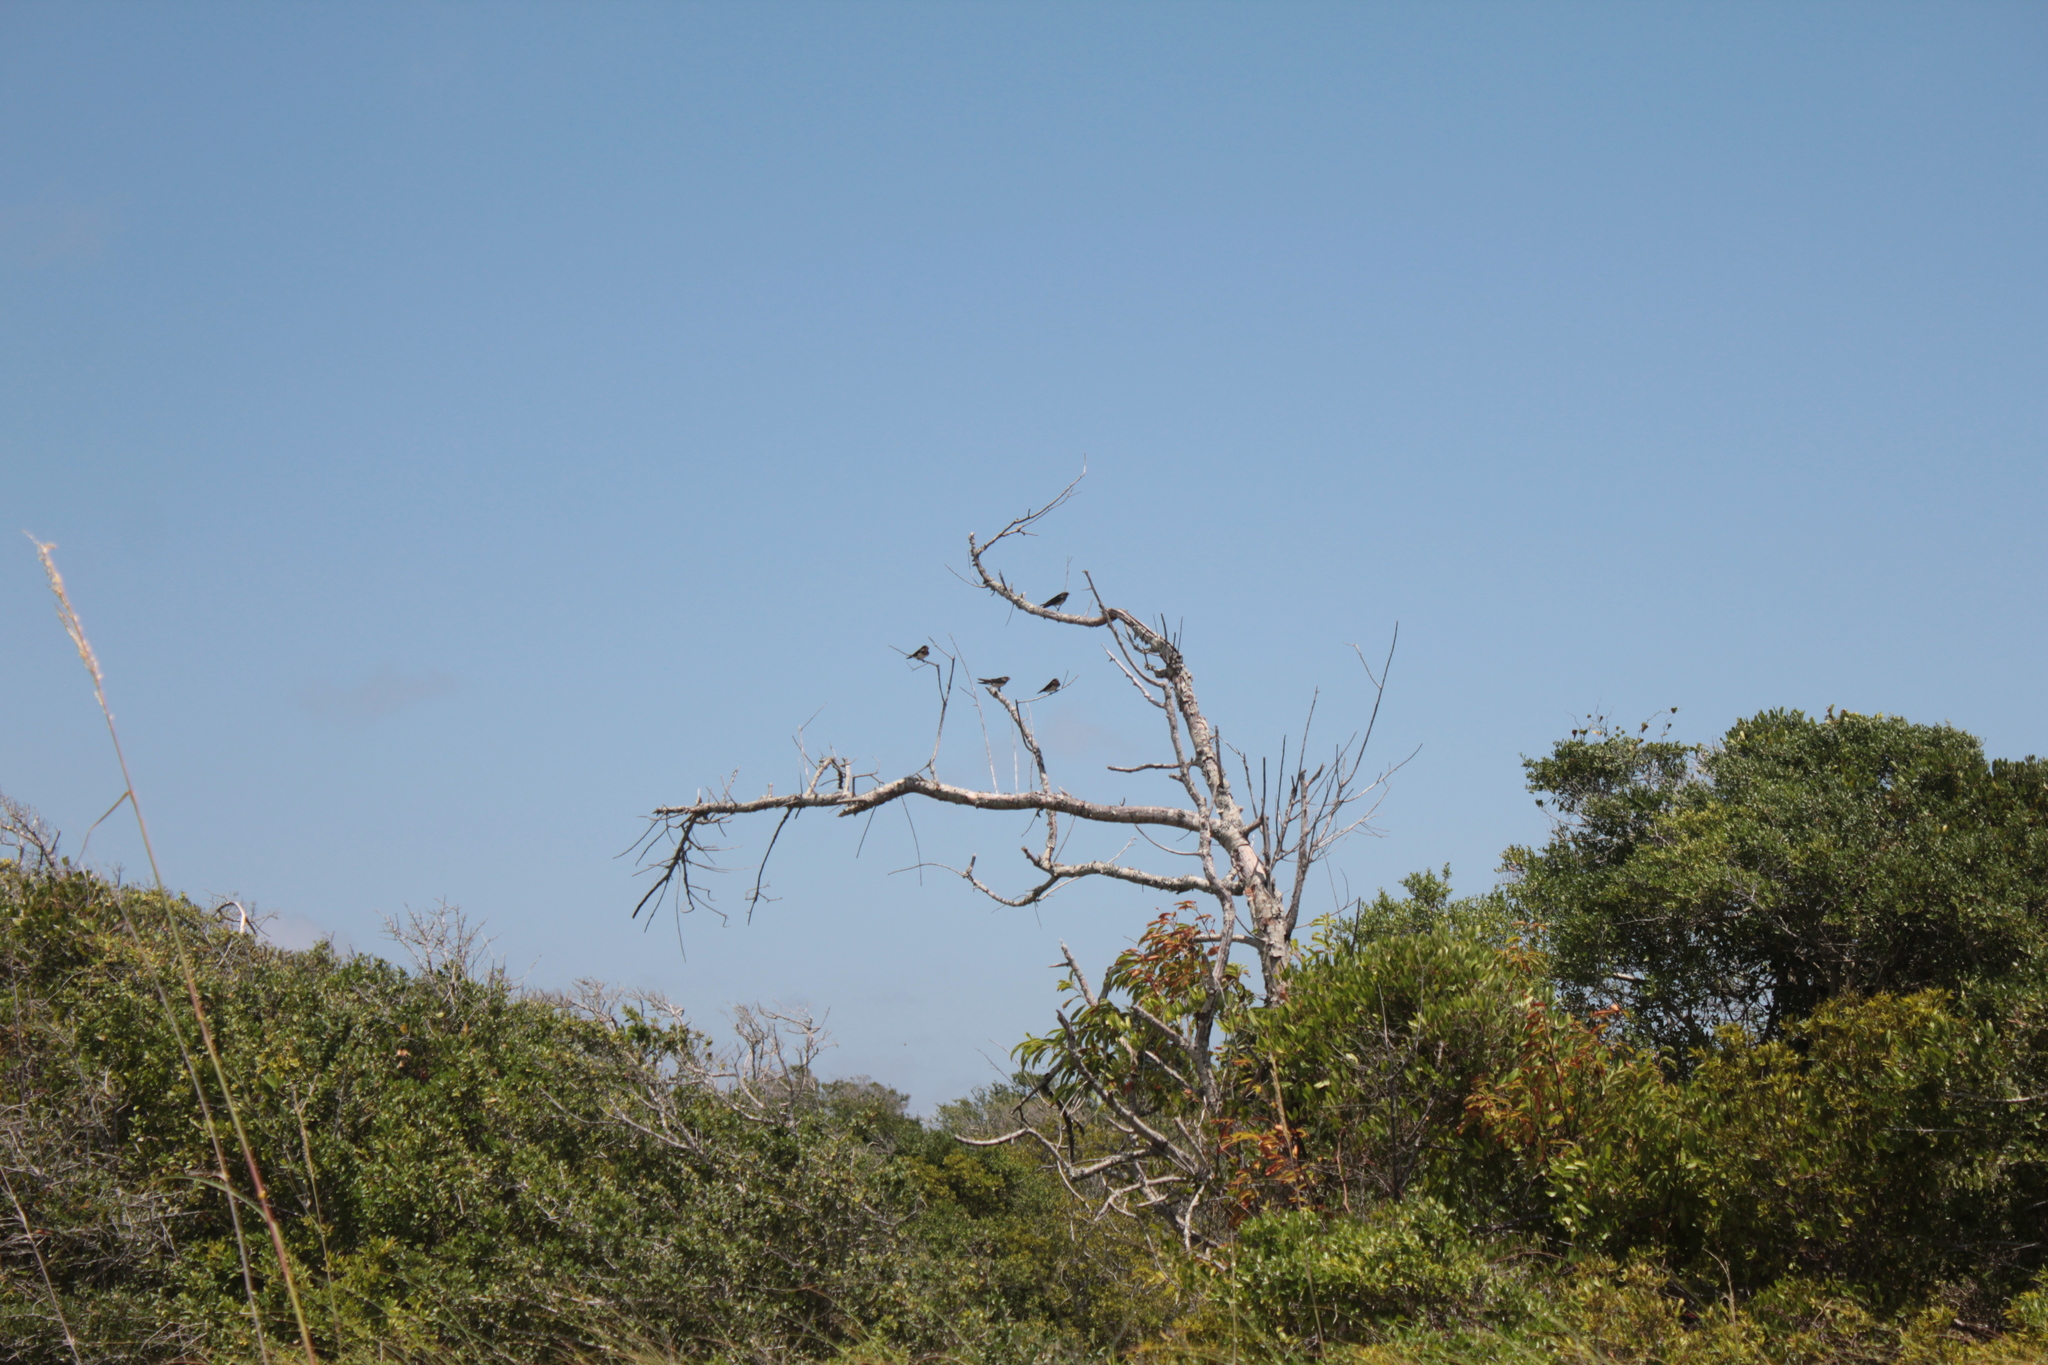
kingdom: Animalia
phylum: Chordata
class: Aves
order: Passeriformes
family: Hirundinidae
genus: Hirundo
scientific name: Hirundo rustica
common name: Barn swallow
